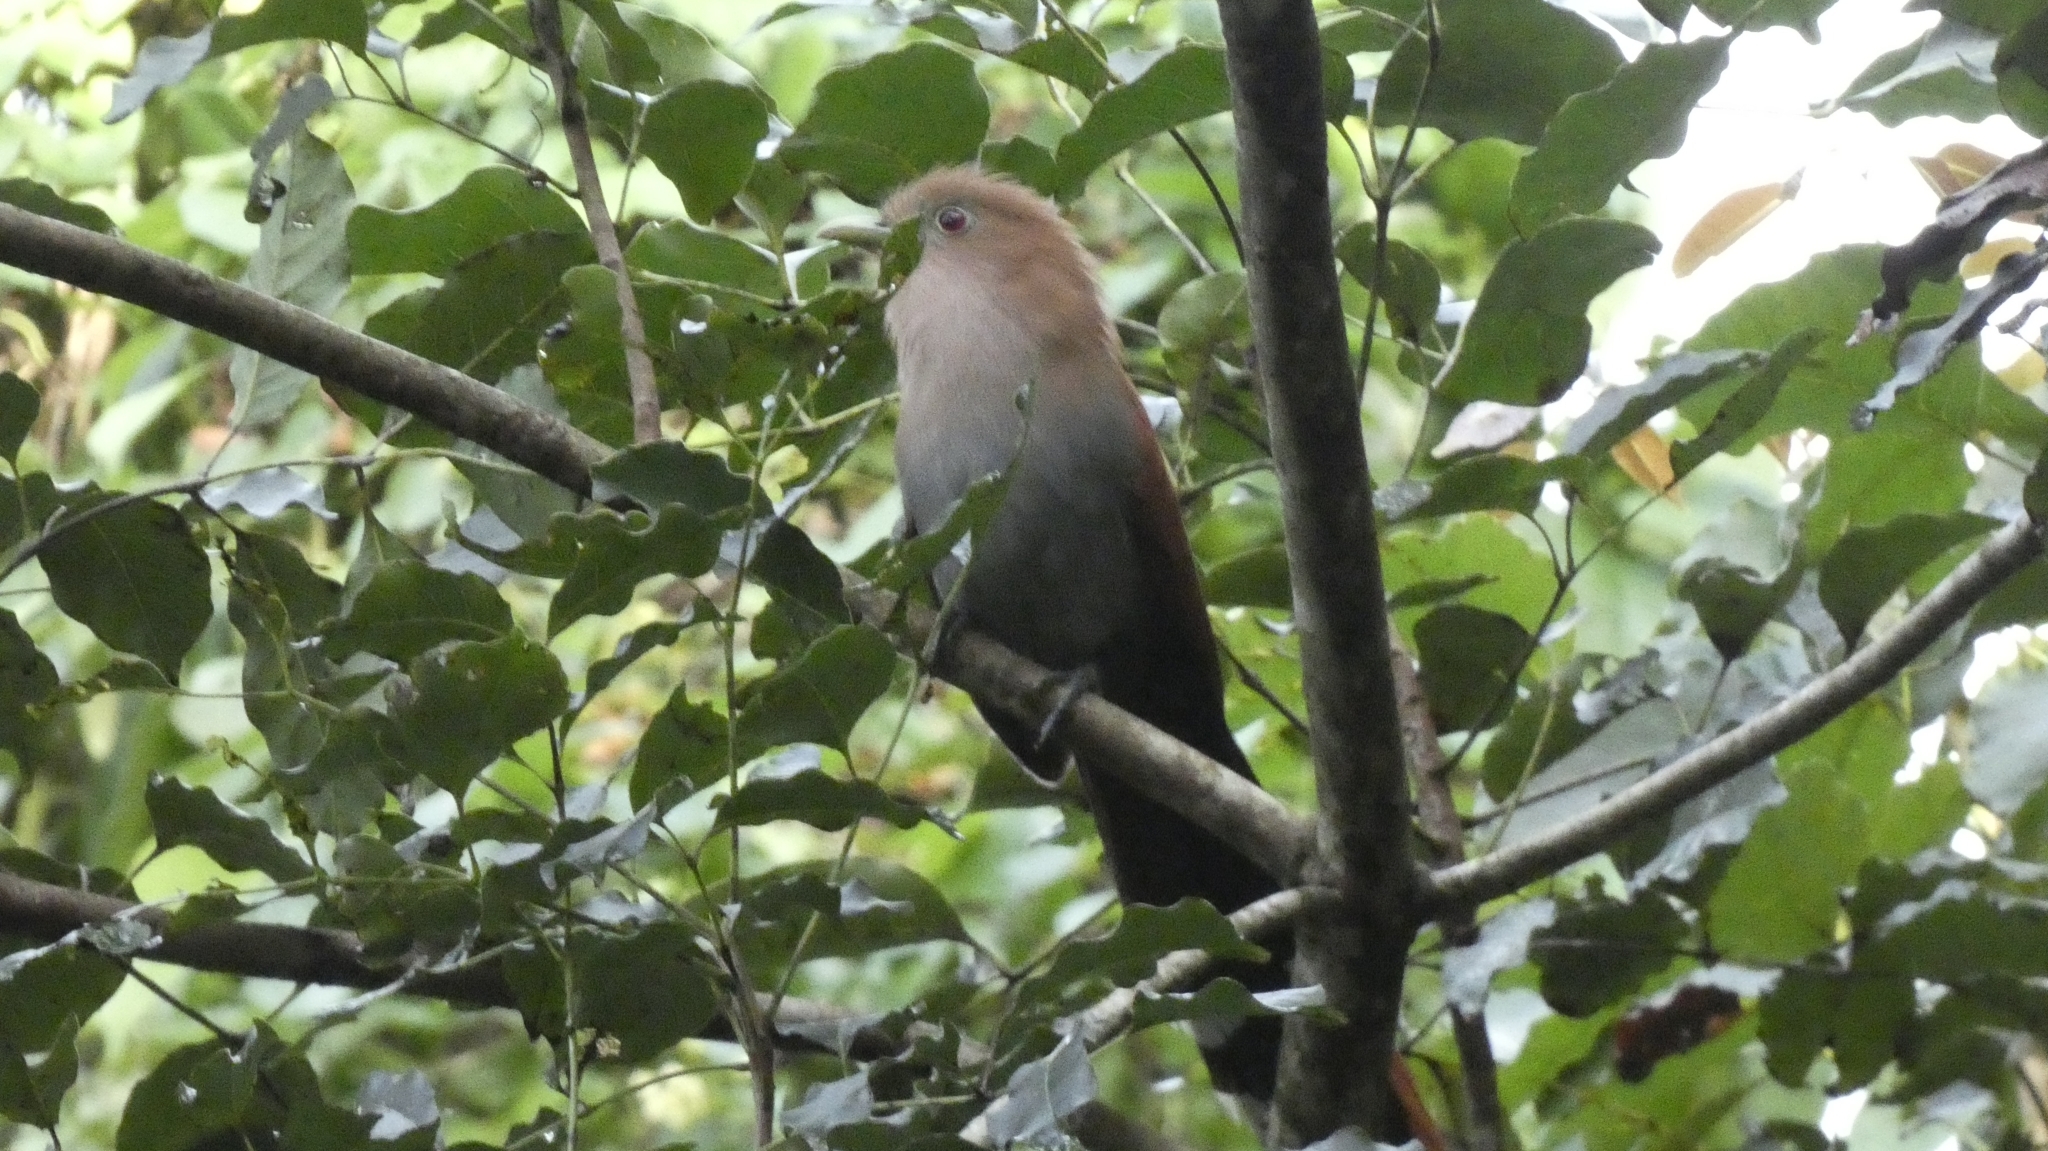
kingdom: Animalia
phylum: Chordata
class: Aves
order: Cuculiformes
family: Cuculidae
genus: Piaya
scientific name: Piaya cayana
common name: Squirrel cuckoo
